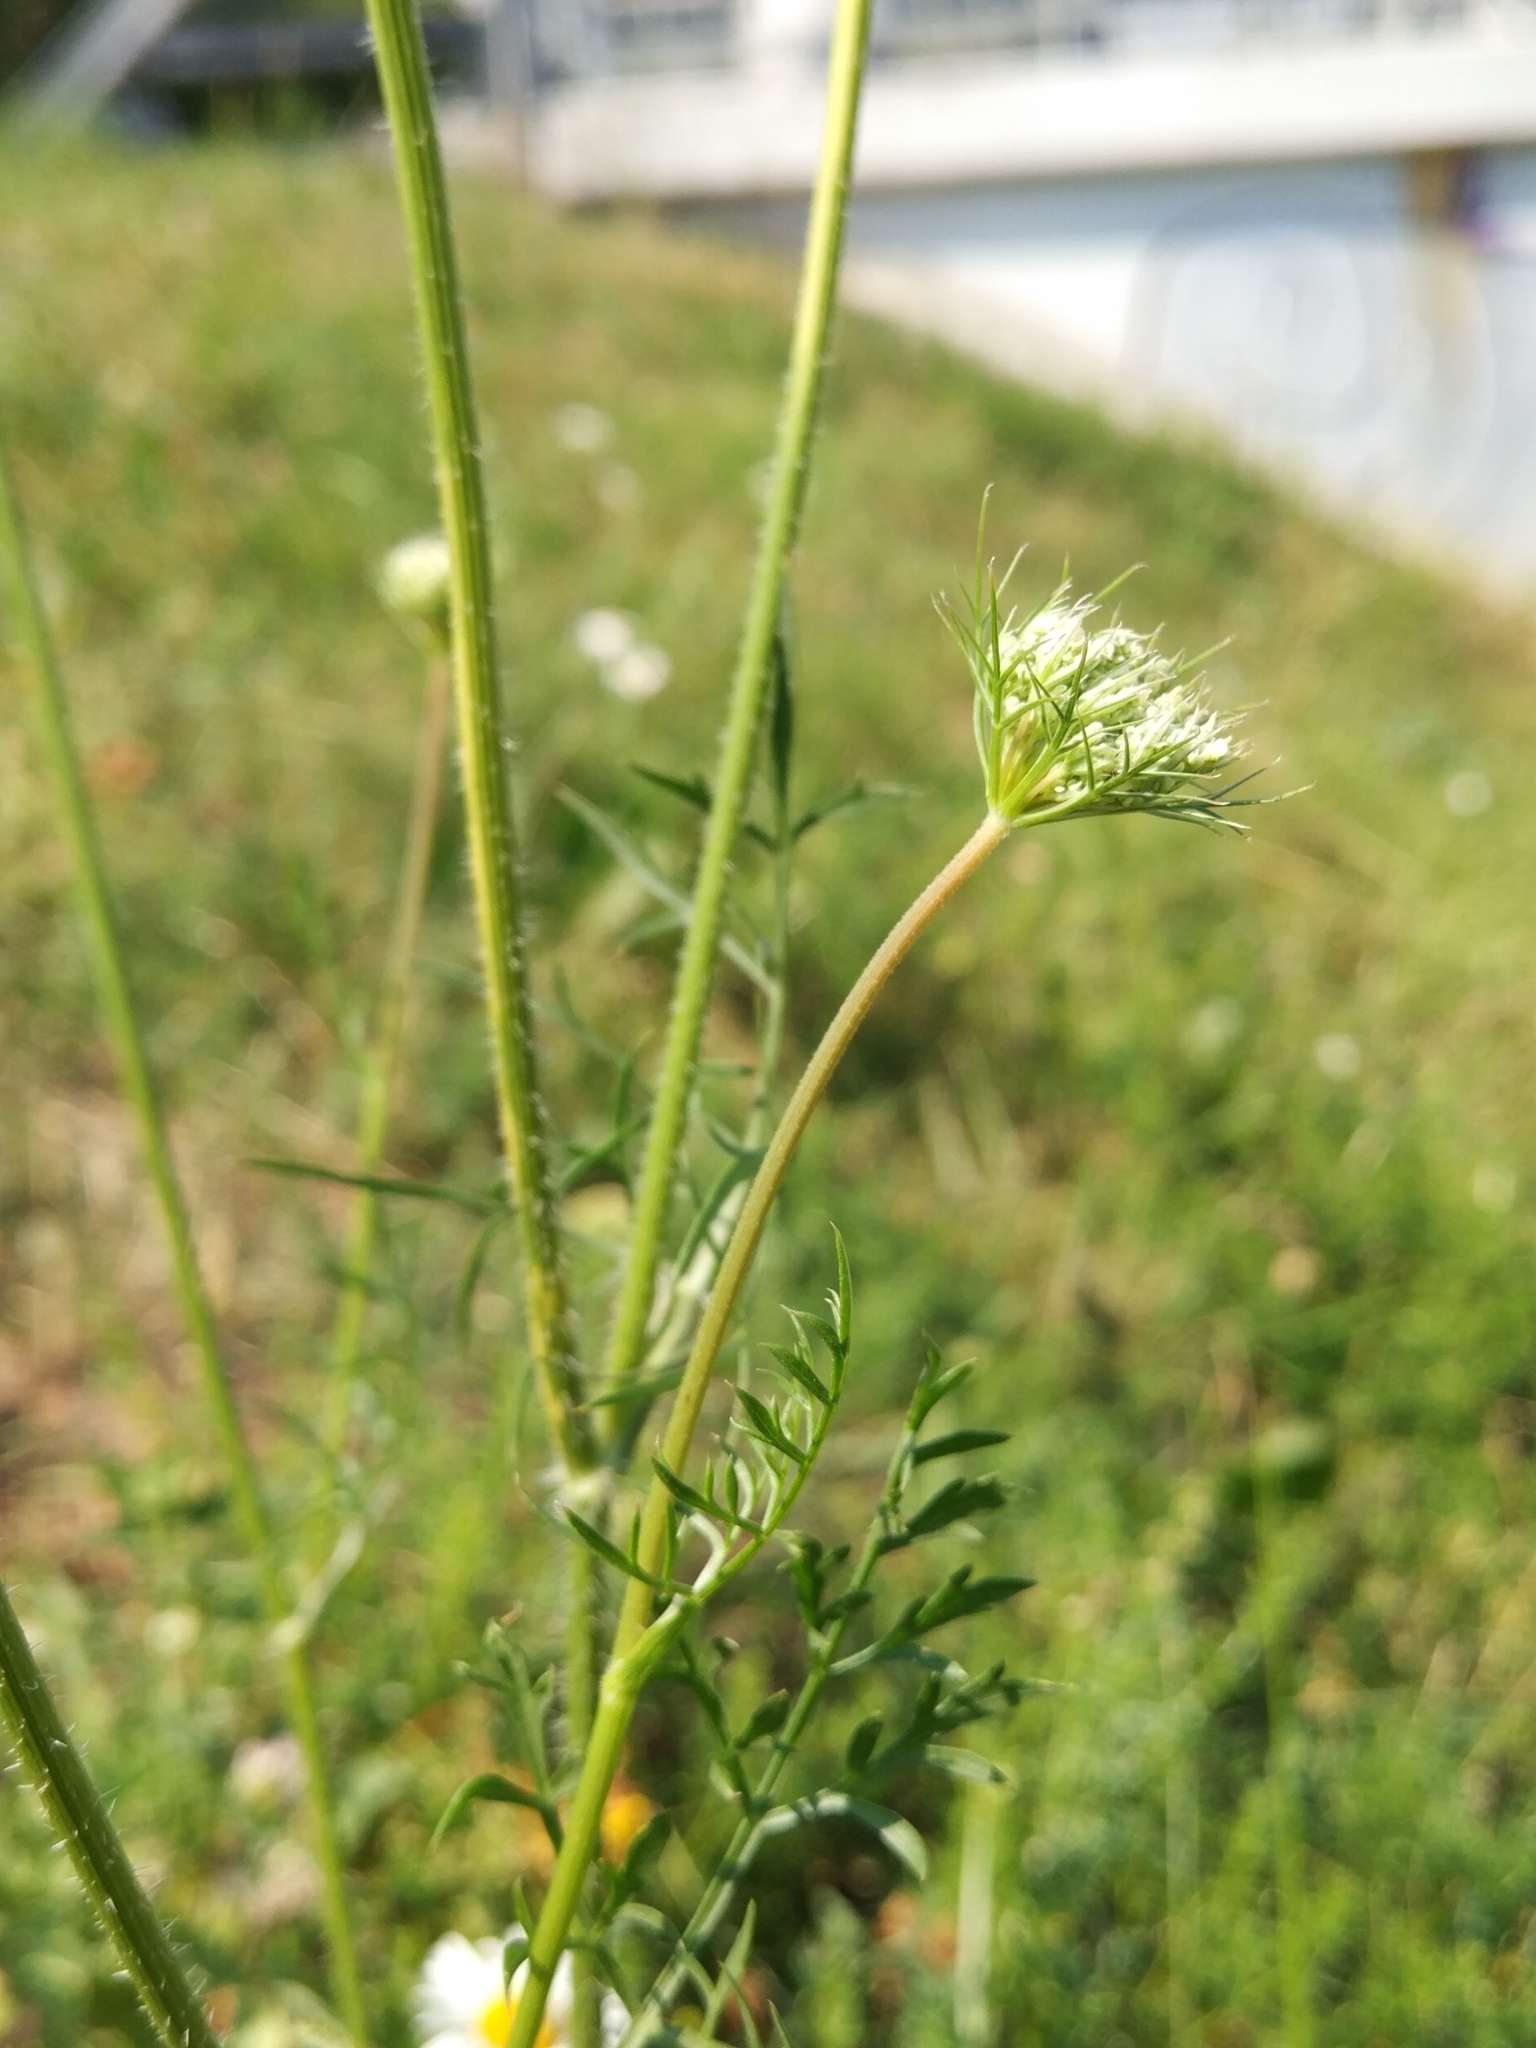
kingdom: Plantae
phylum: Tracheophyta
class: Magnoliopsida
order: Apiales
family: Apiaceae
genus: Daucus
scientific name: Daucus carota
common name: Wild carrot
